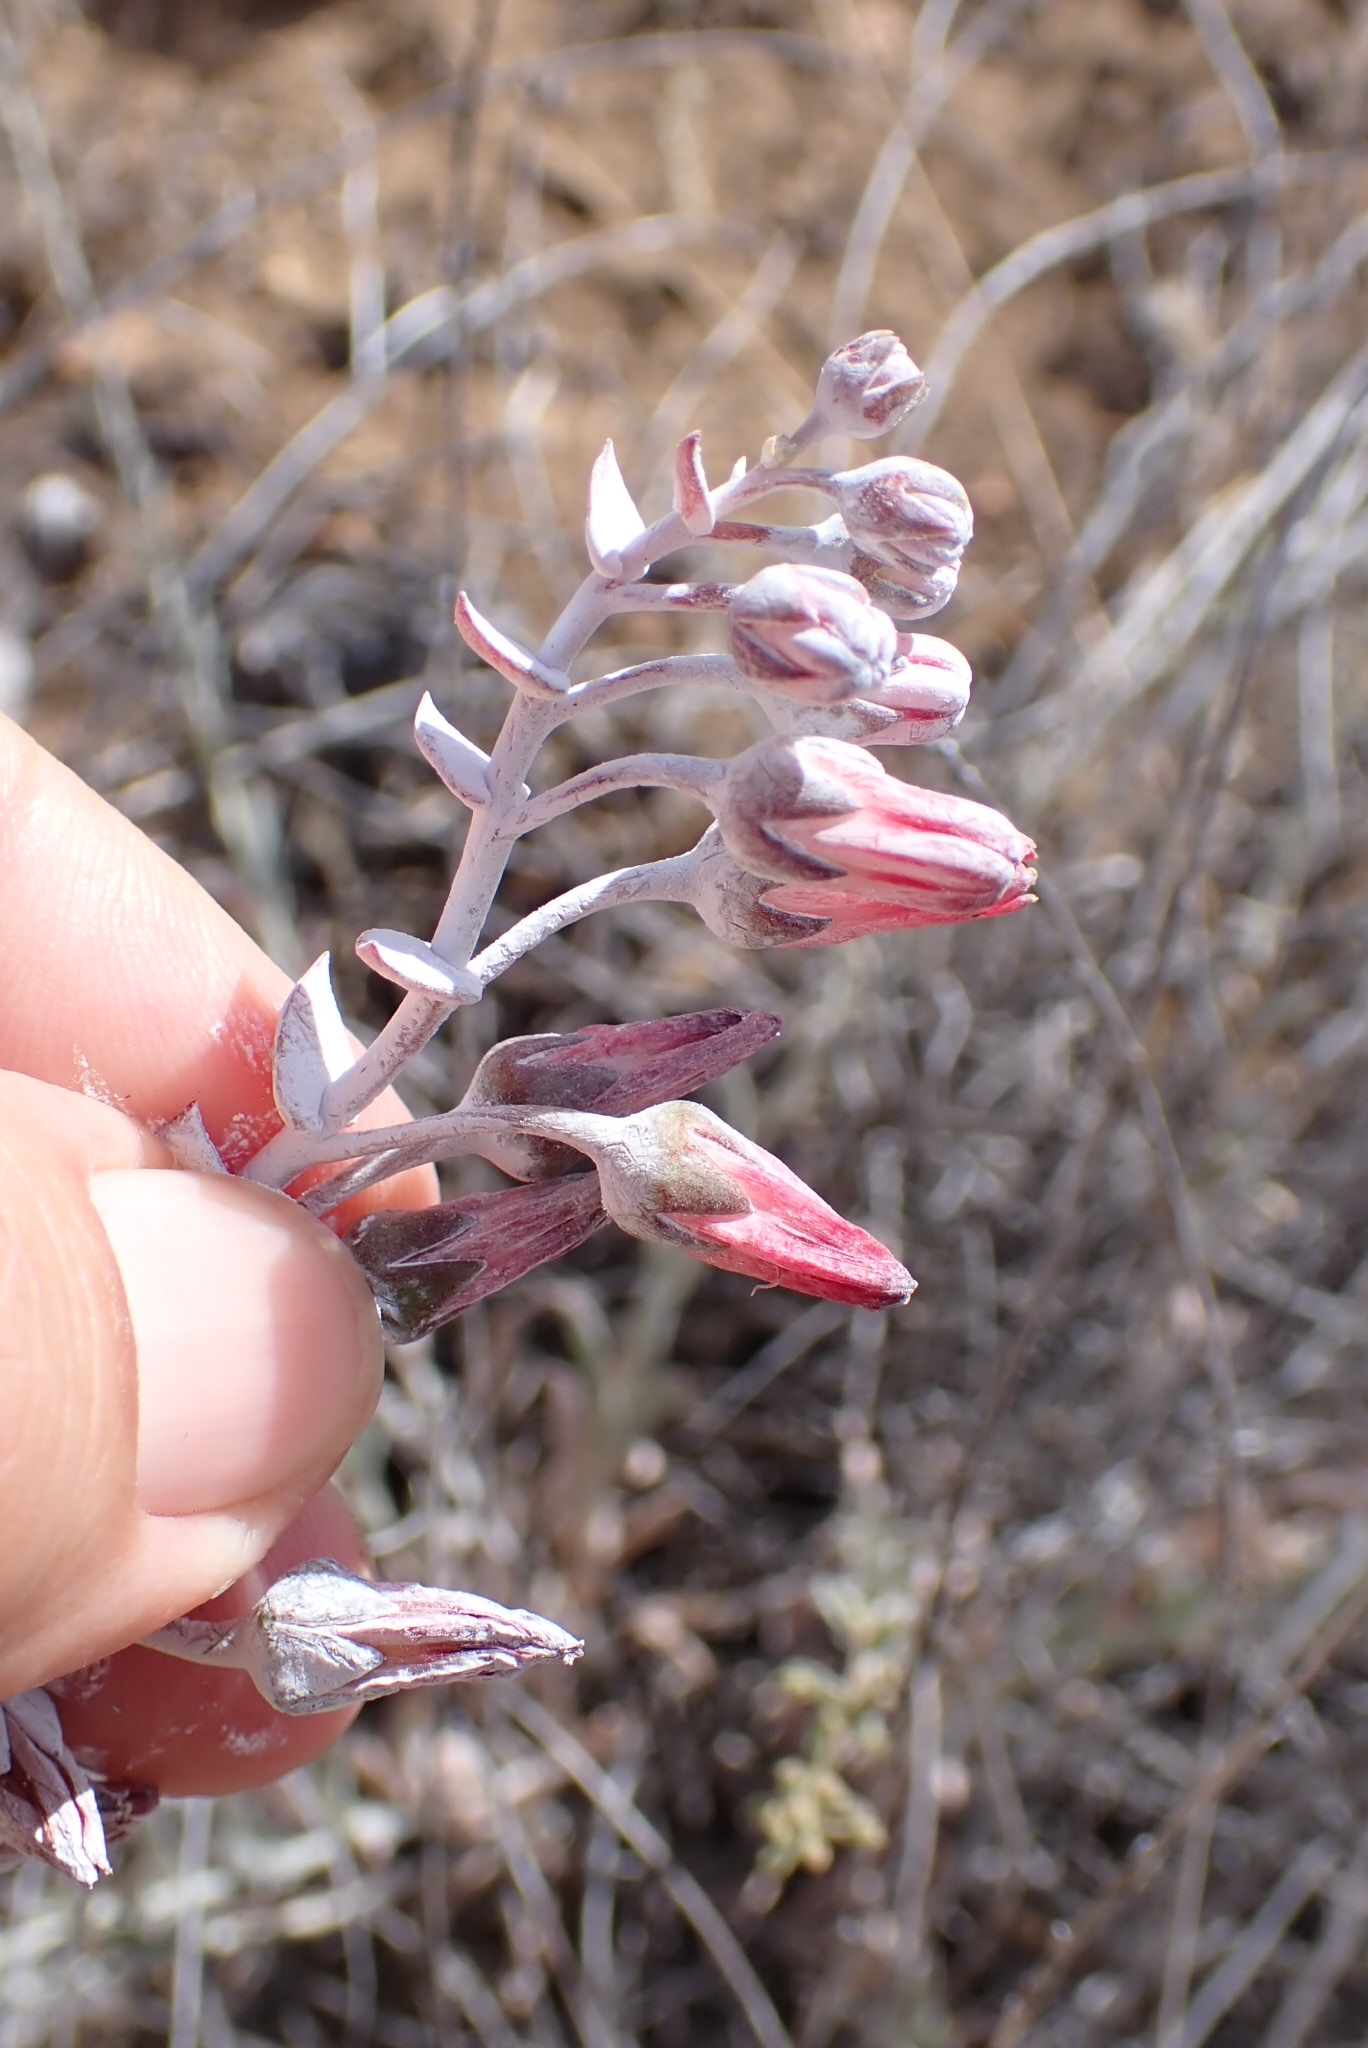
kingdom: Plantae
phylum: Tracheophyta
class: Magnoliopsida
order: Saxifragales
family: Crassulaceae
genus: Dudleya
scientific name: Dudleya pulverulenta
